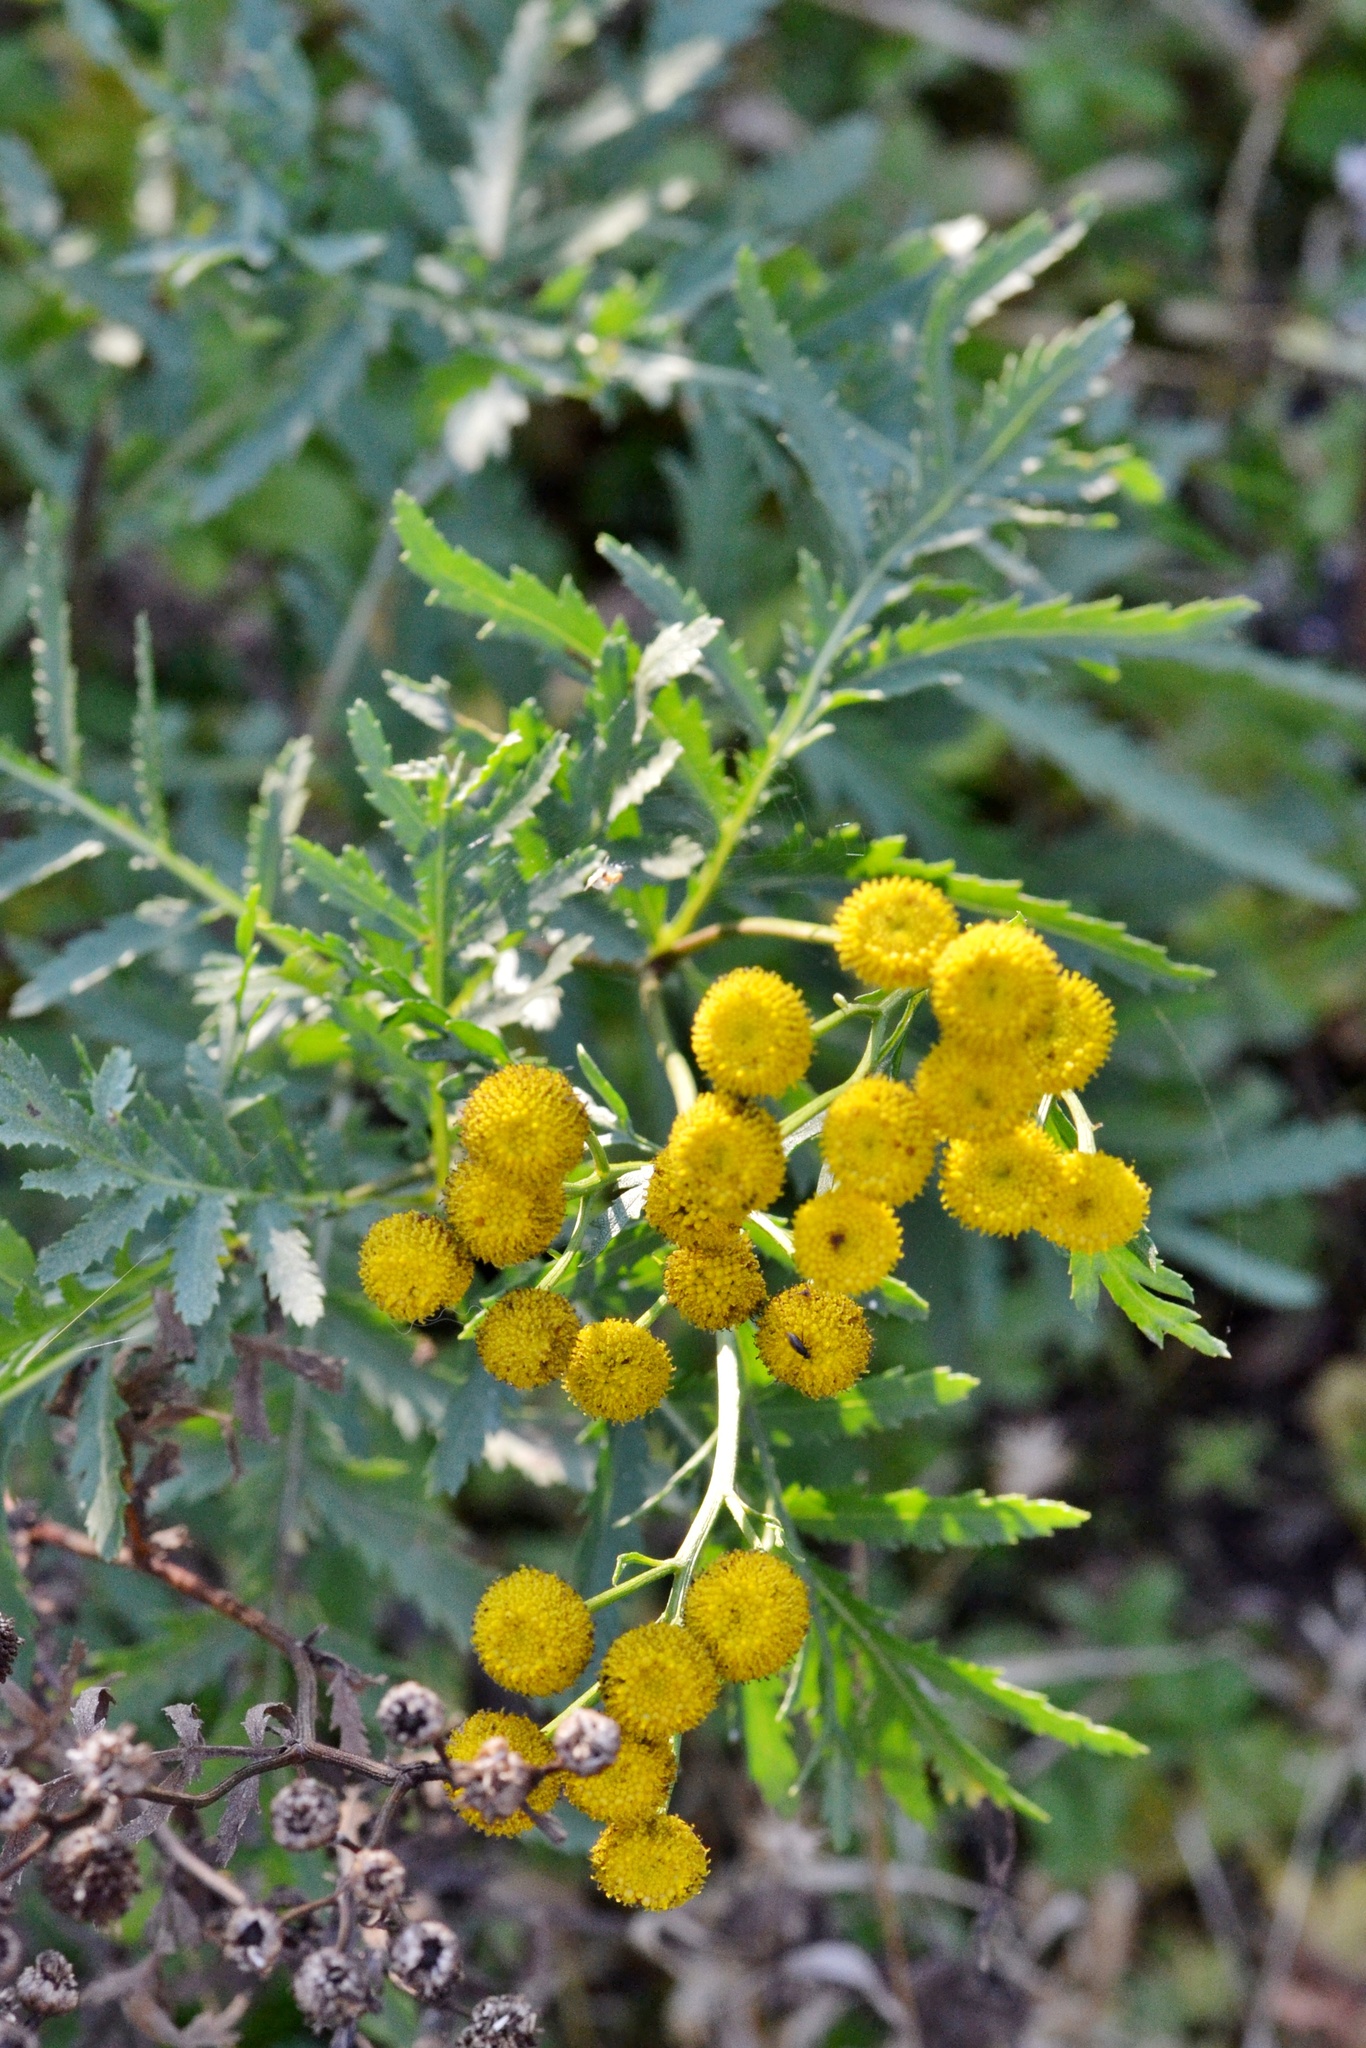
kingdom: Plantae
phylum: Tracheophyta
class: Magnoliopsida
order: Asterales
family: Asteraceae
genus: Tanacetum
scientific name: Tanacetum vulgare
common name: Common tansy
